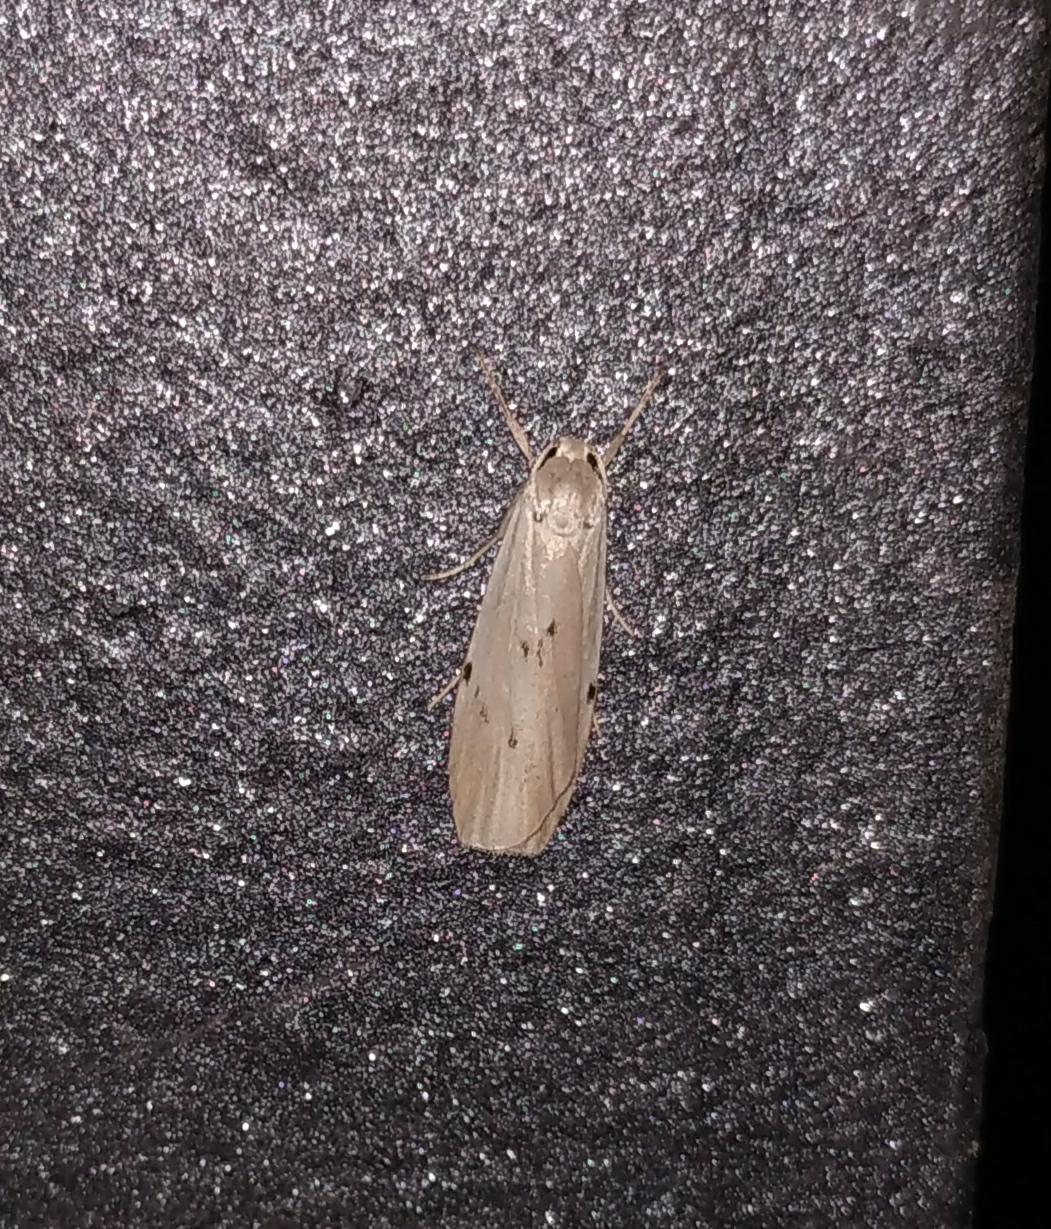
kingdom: Animalia
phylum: Arthropoda
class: Insecta
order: Lepidoptera
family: Erebidae
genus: Pelosia
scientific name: Pelosia muscerda
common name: Dotted footman
